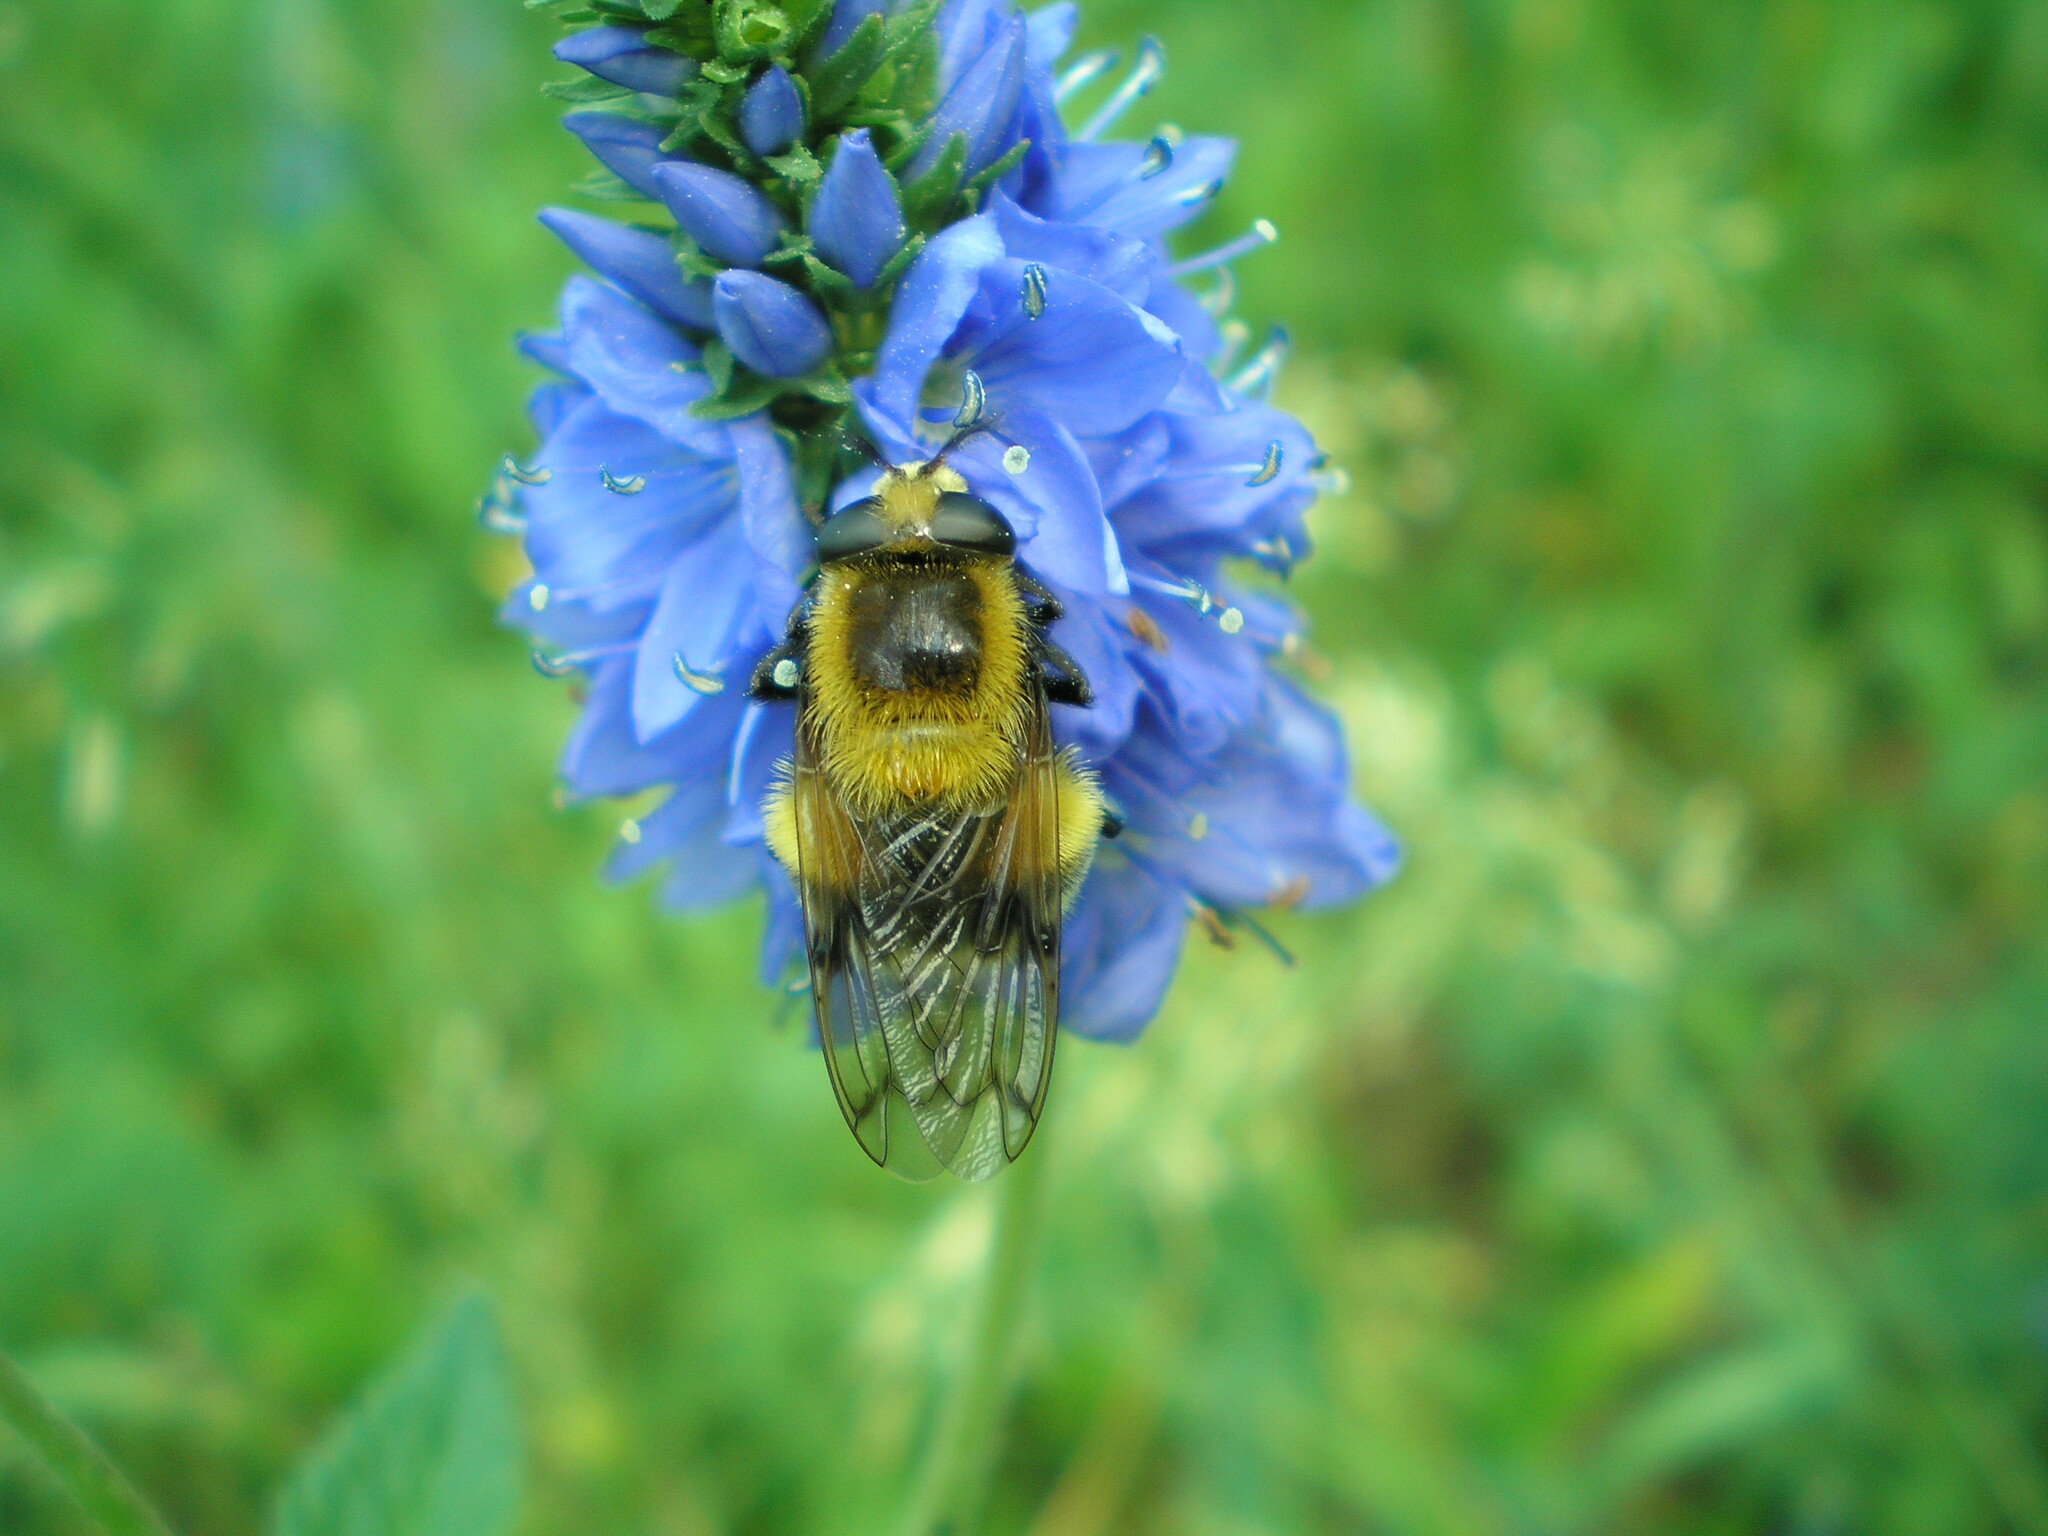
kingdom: Animalia
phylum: Arthropoda
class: Insecta
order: Diptera
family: Syrphidae
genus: Volucella
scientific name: Volucella bombylans
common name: Bumble bee hover fly
